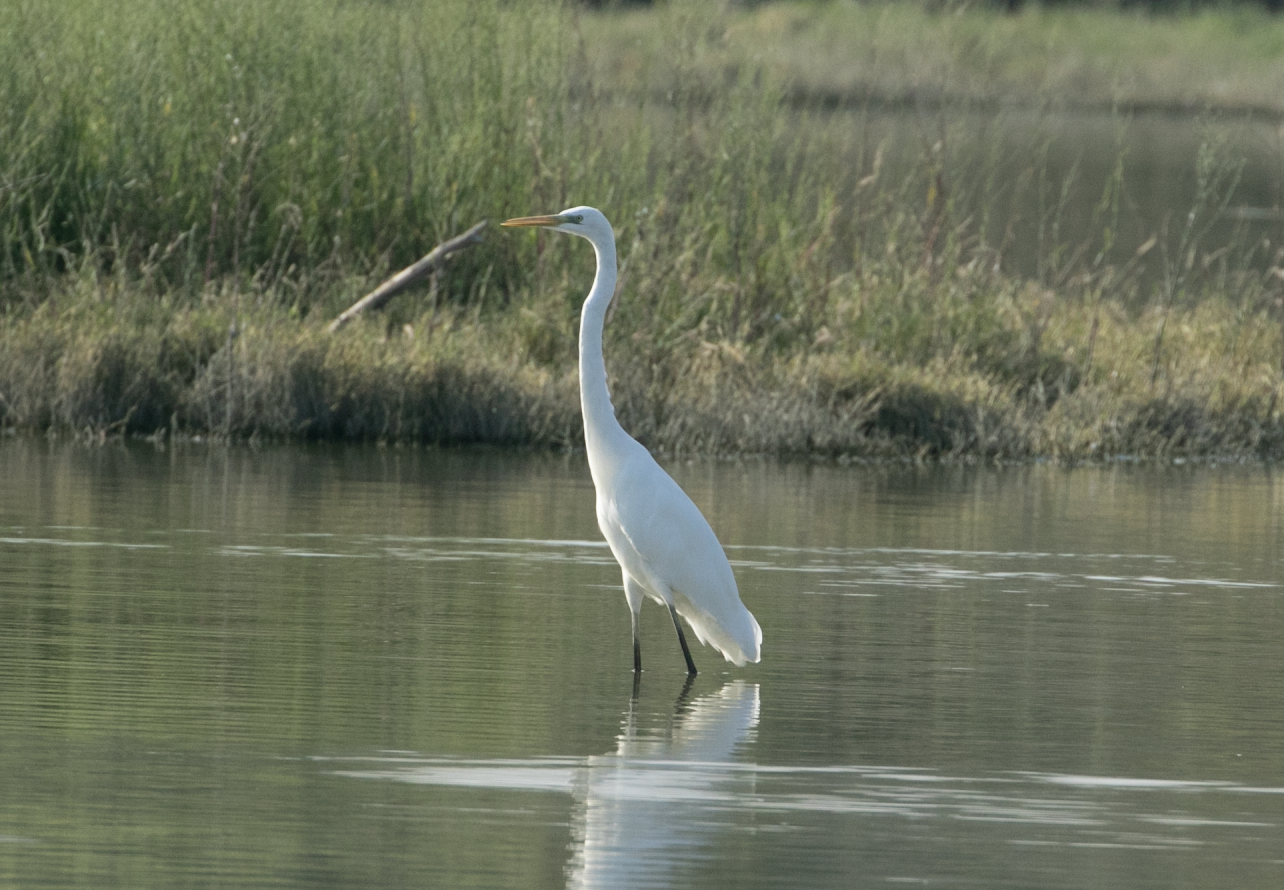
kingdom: Animalia
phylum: Chordata
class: Aves
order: Pelecaniformes
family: Ardeidae
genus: Ardea
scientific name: Ardea alba
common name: Great egret
